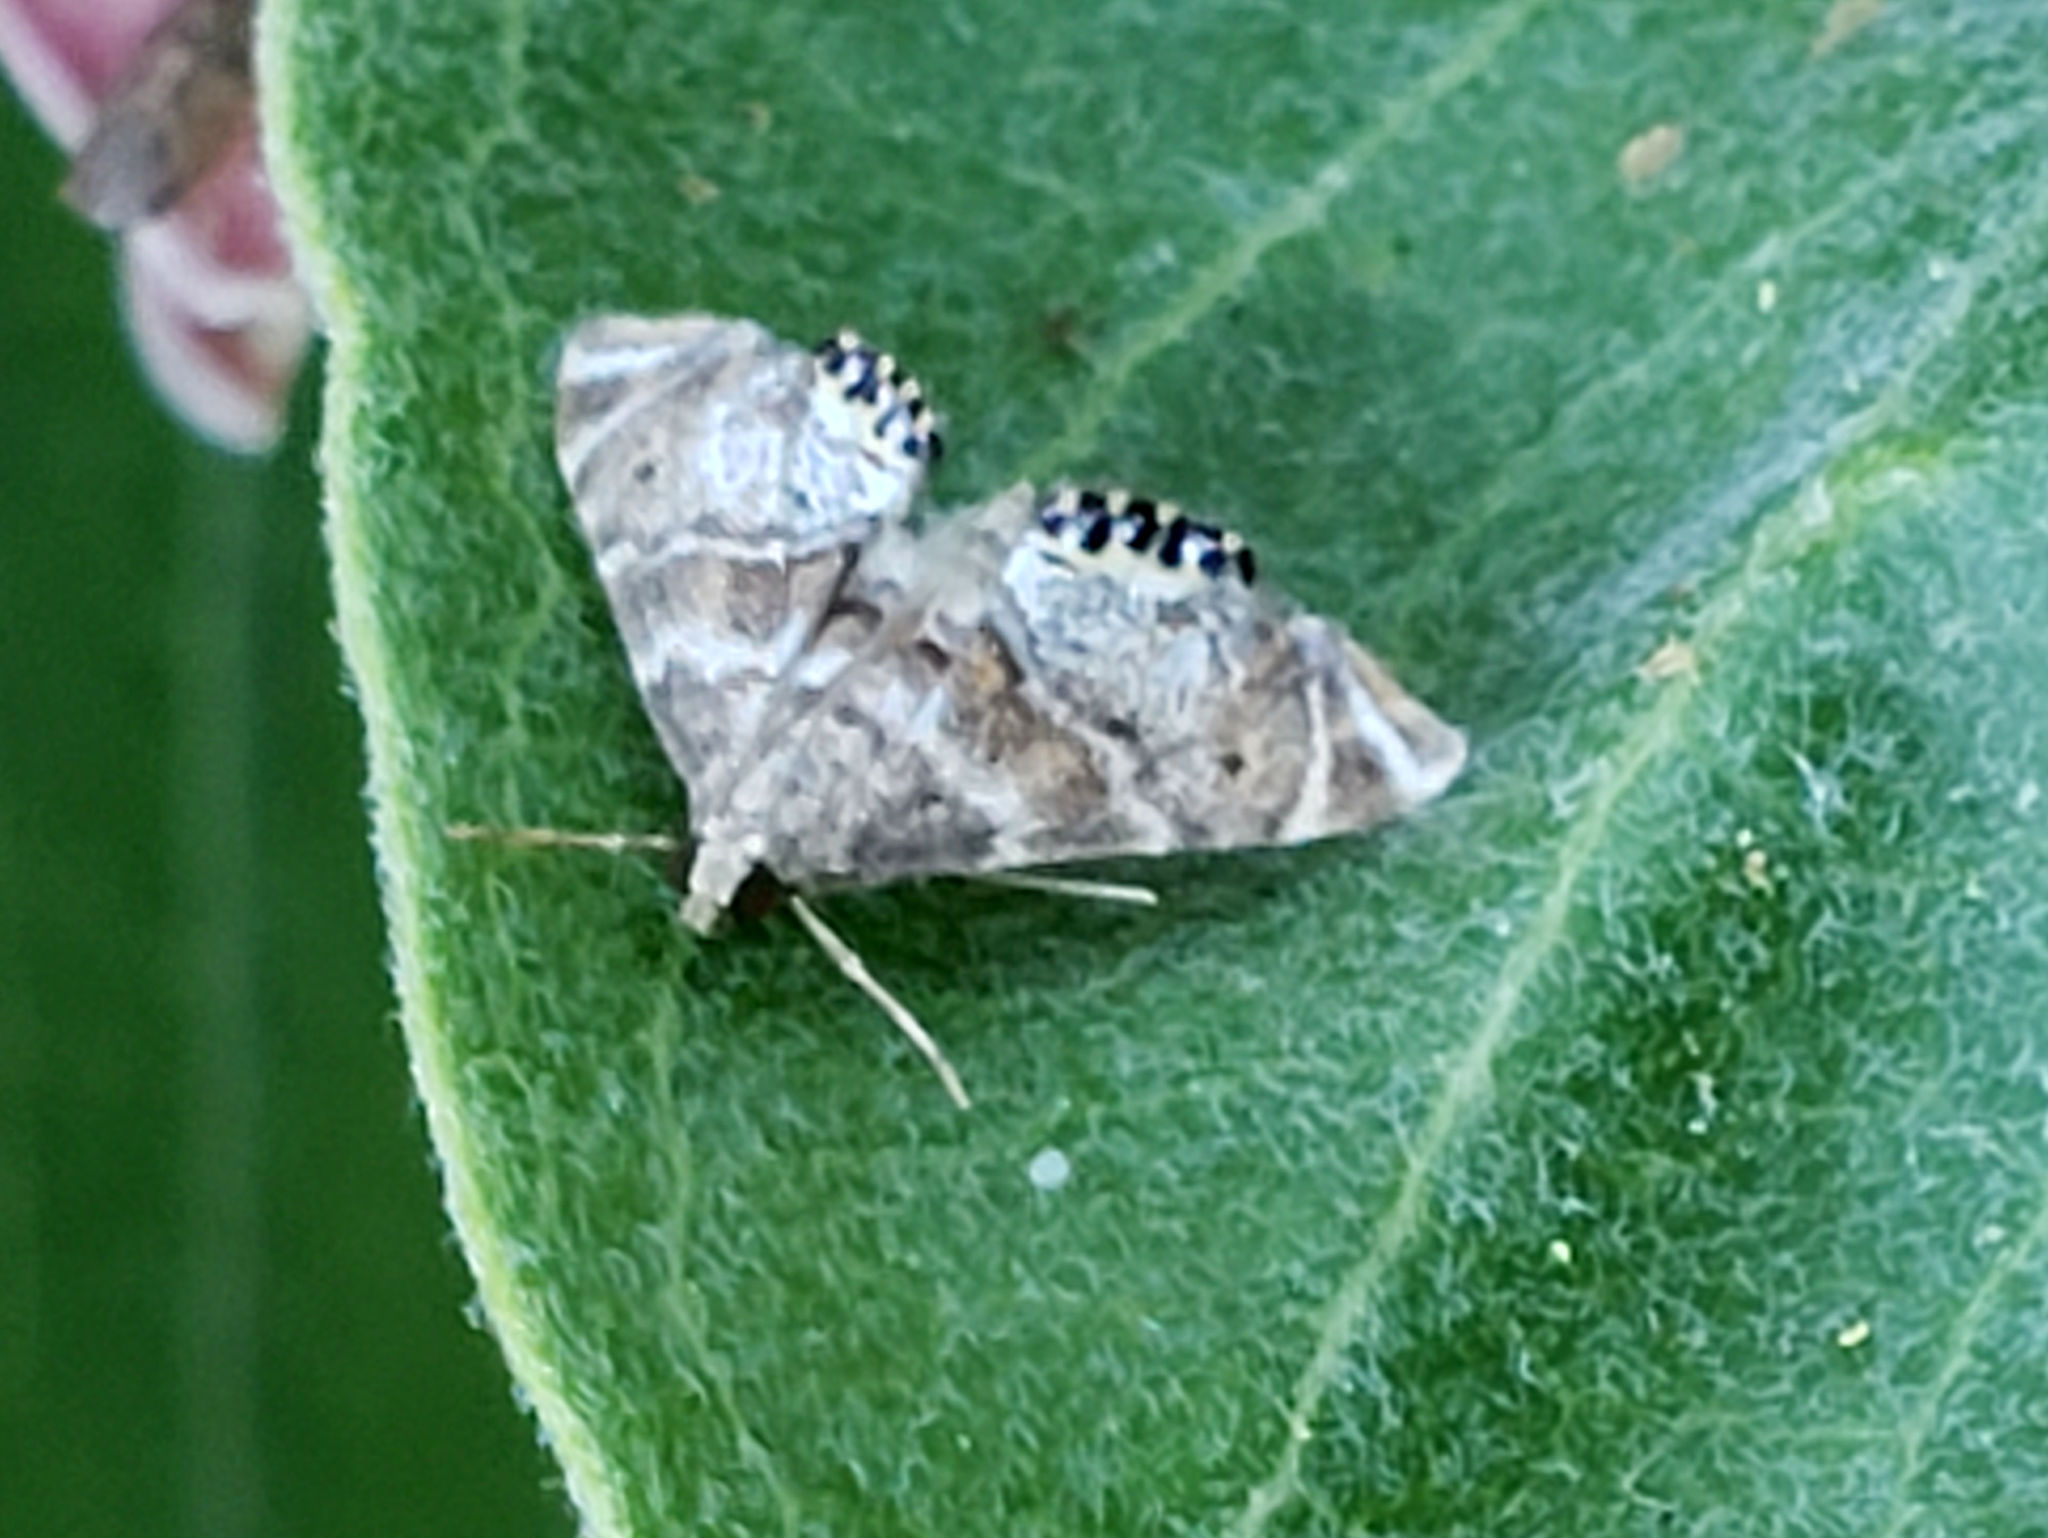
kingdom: Animalia
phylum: Arthropoda
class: Insecta
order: Lepidoptera
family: Crambidae
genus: Petrophila
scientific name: Petrophila confusalis
